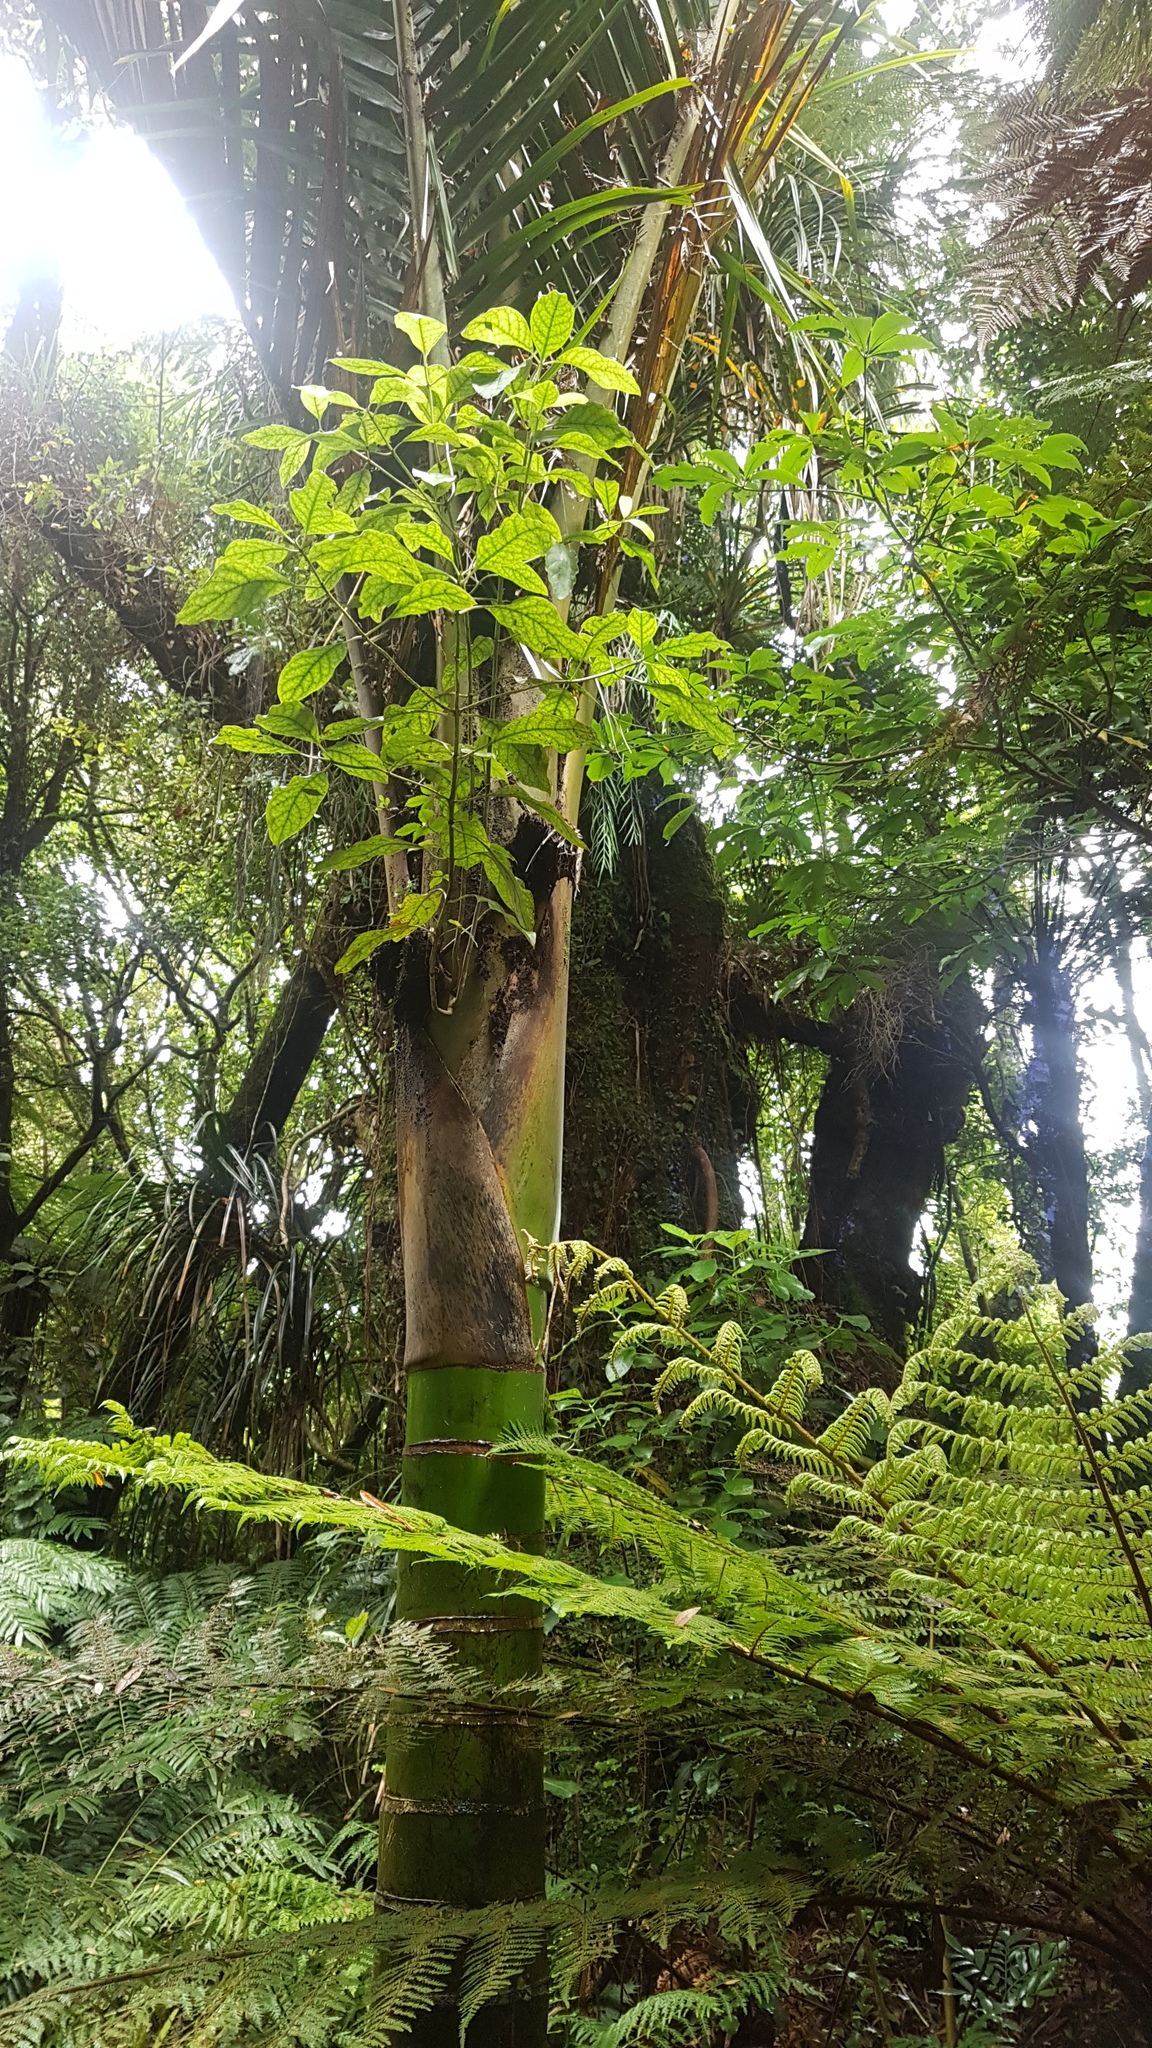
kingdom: Plantae
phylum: Tracheophyta
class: Liliopsida
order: Arecales
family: Arecaceae
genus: Rhopalostylis
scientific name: Rhopalostylis sapida
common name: Feather-duster palm
